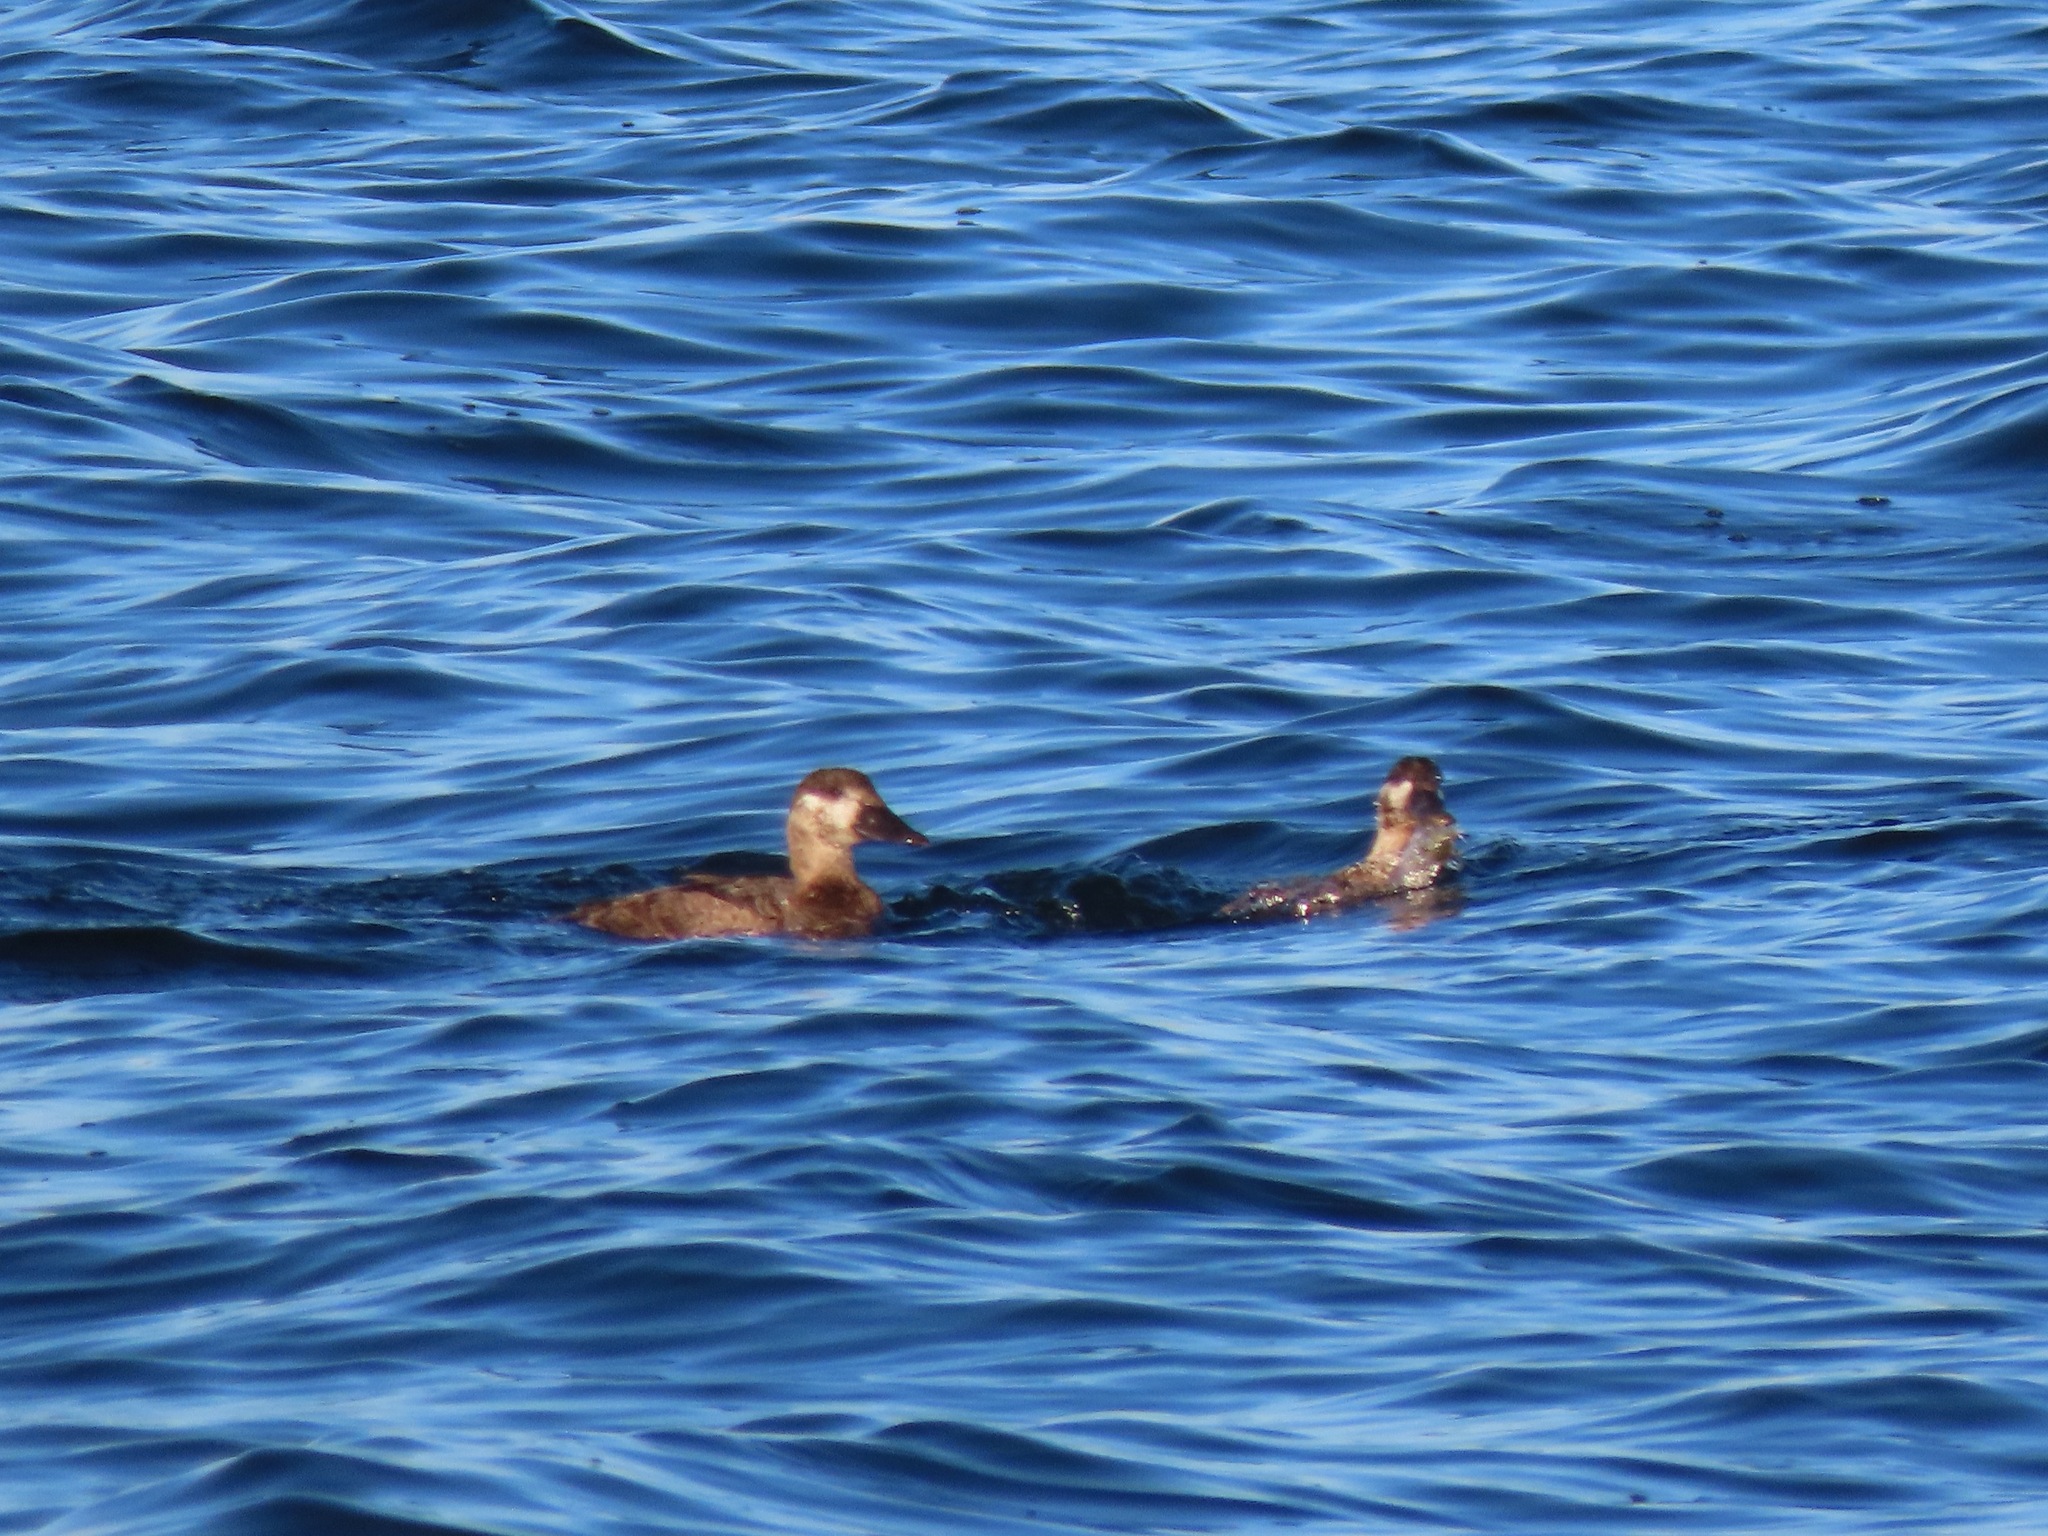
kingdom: Animalia
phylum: Chordata
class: Aves
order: Anseriformes
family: Anatidae
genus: Melanitta
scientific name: Melanitta perspicillata
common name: Surf scoter
